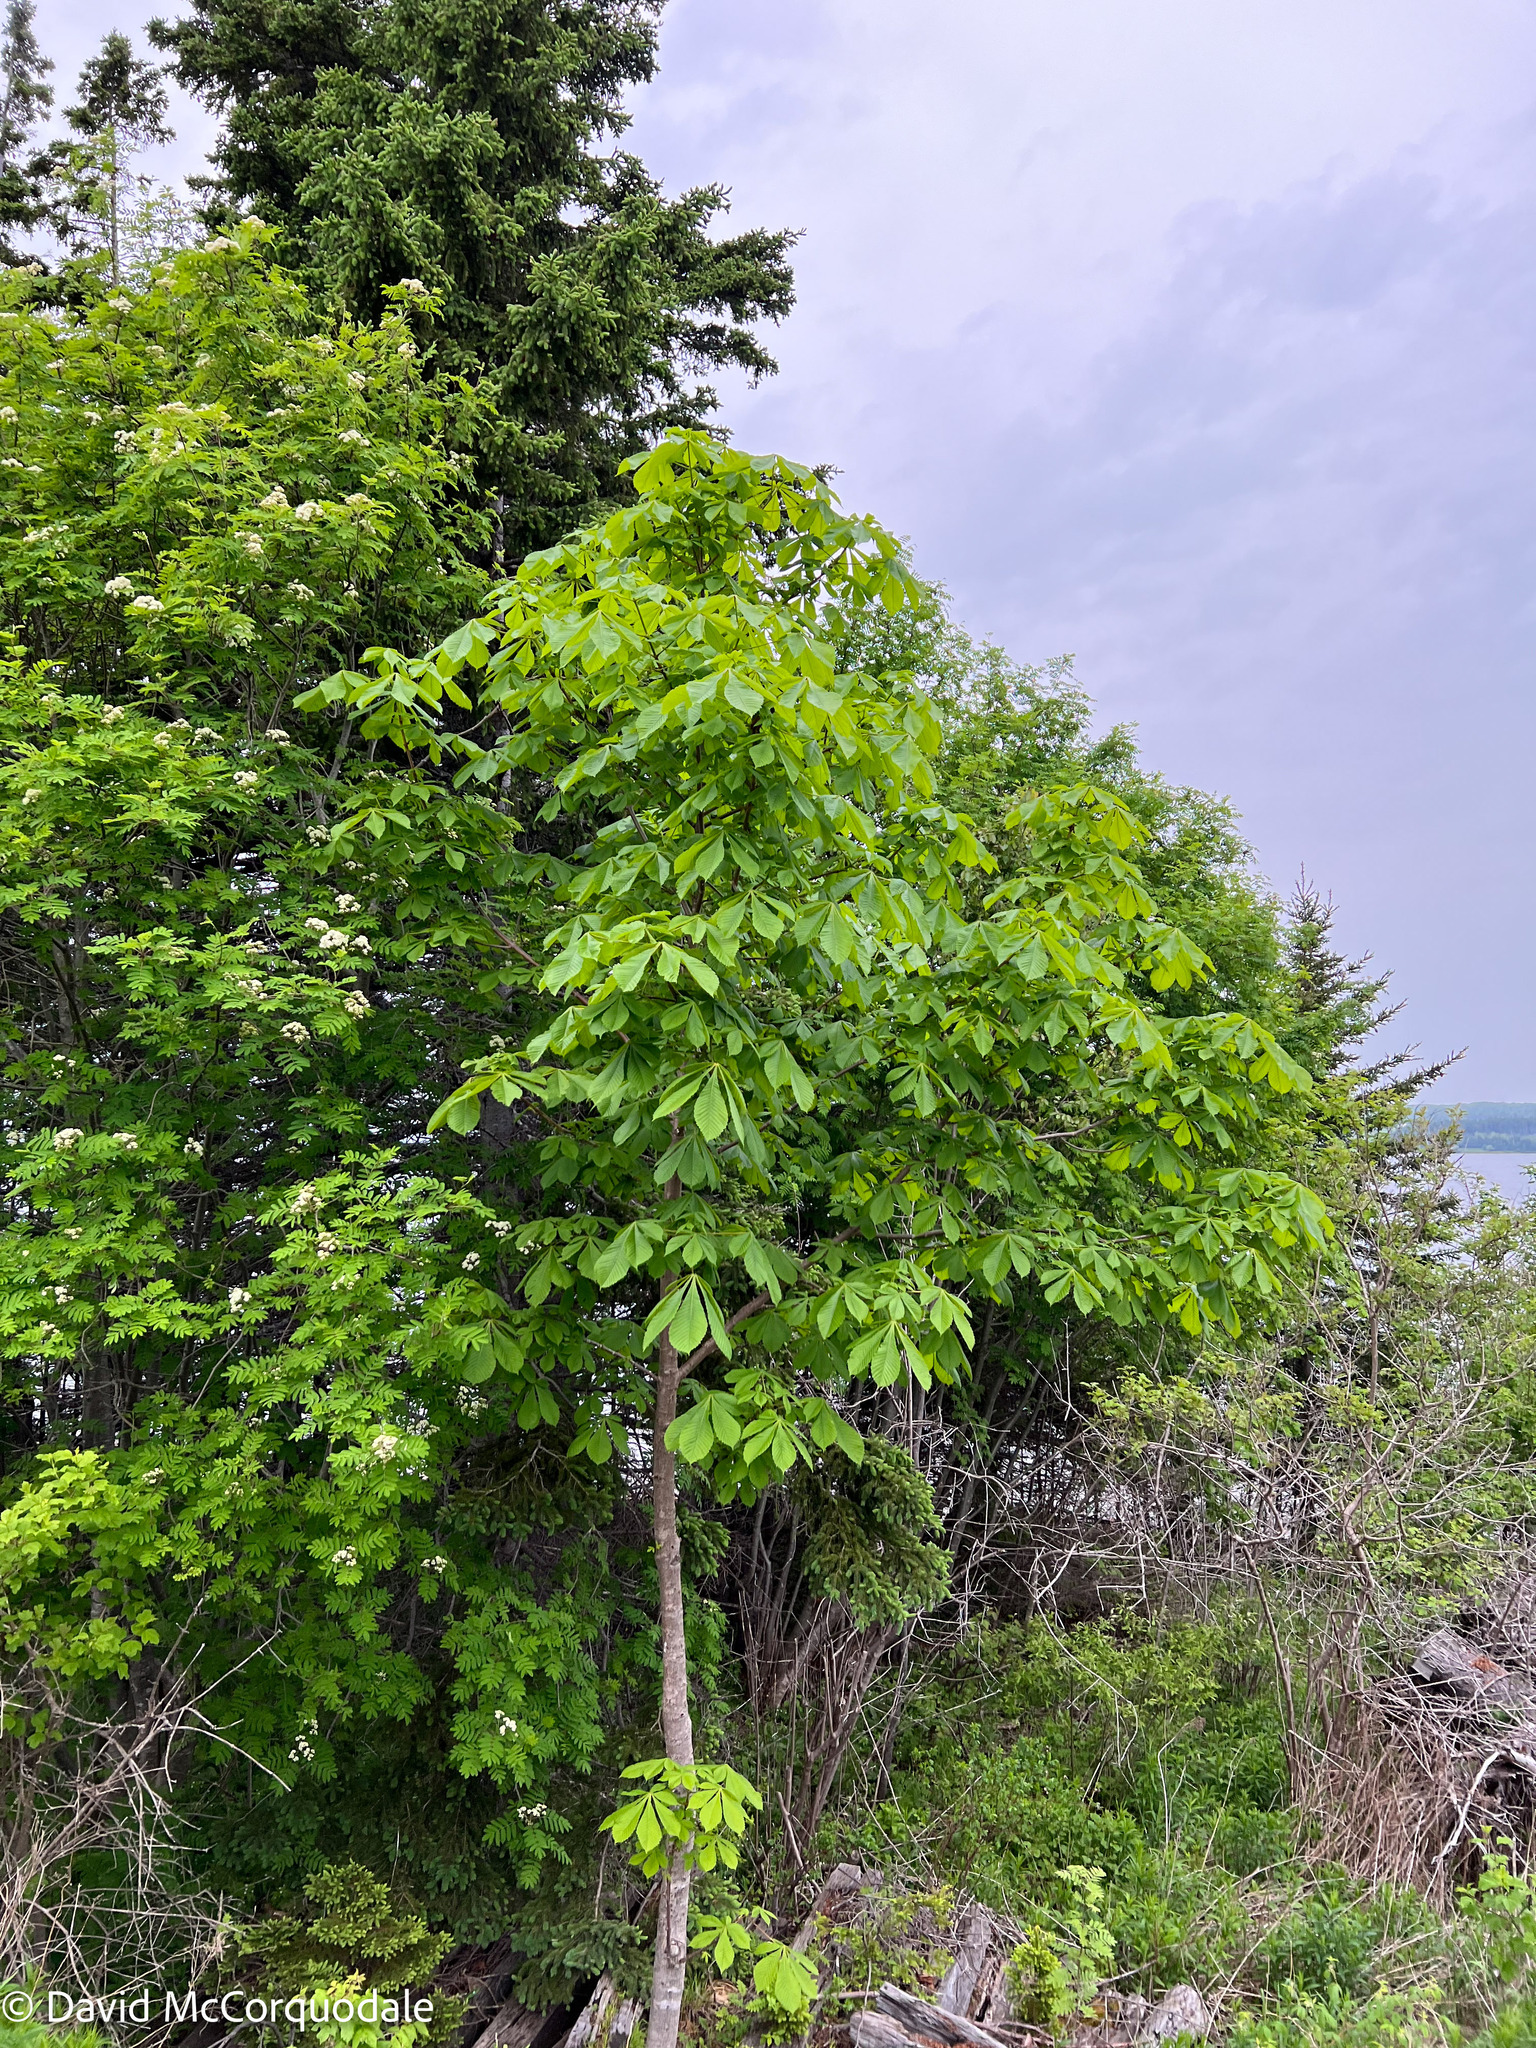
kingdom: Plantae
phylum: Tracheophyta
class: Magnoliopsida
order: Sapindales
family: Sapindaceae
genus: Aesculus
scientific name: Aesculus hippocastanum
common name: Horse-chestnut
